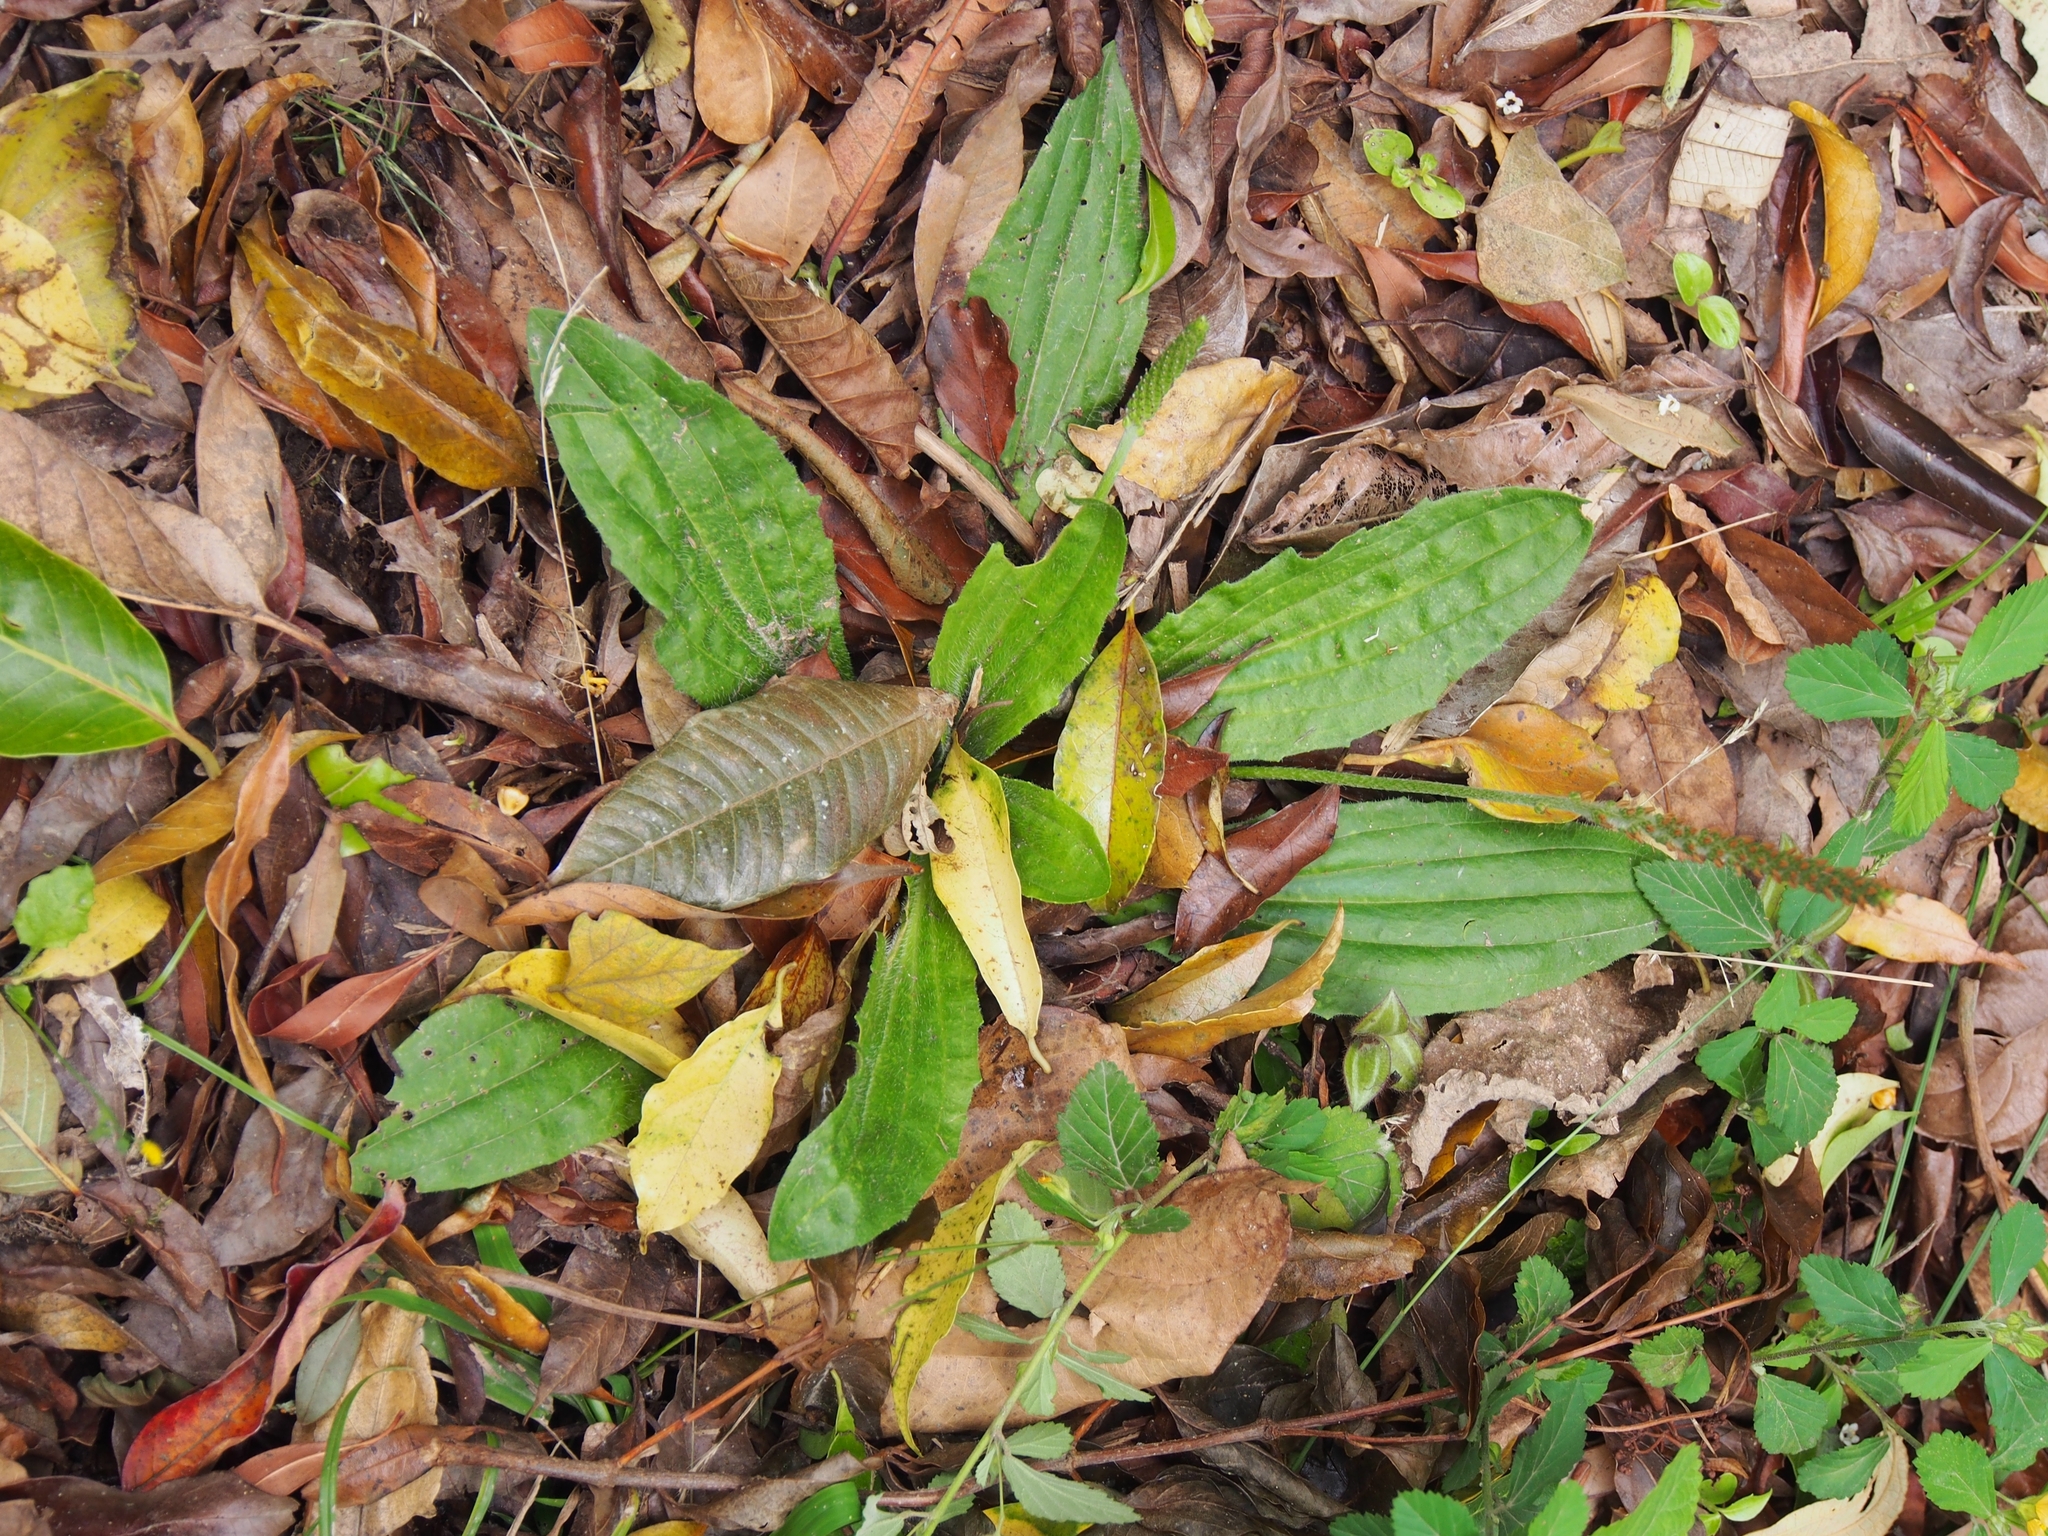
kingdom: Plantae
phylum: Tracheophyta
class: Magnoliopsida
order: Lamiales
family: Plantaginaceae
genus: Plantago
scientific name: Plantago major
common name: Common plantain
